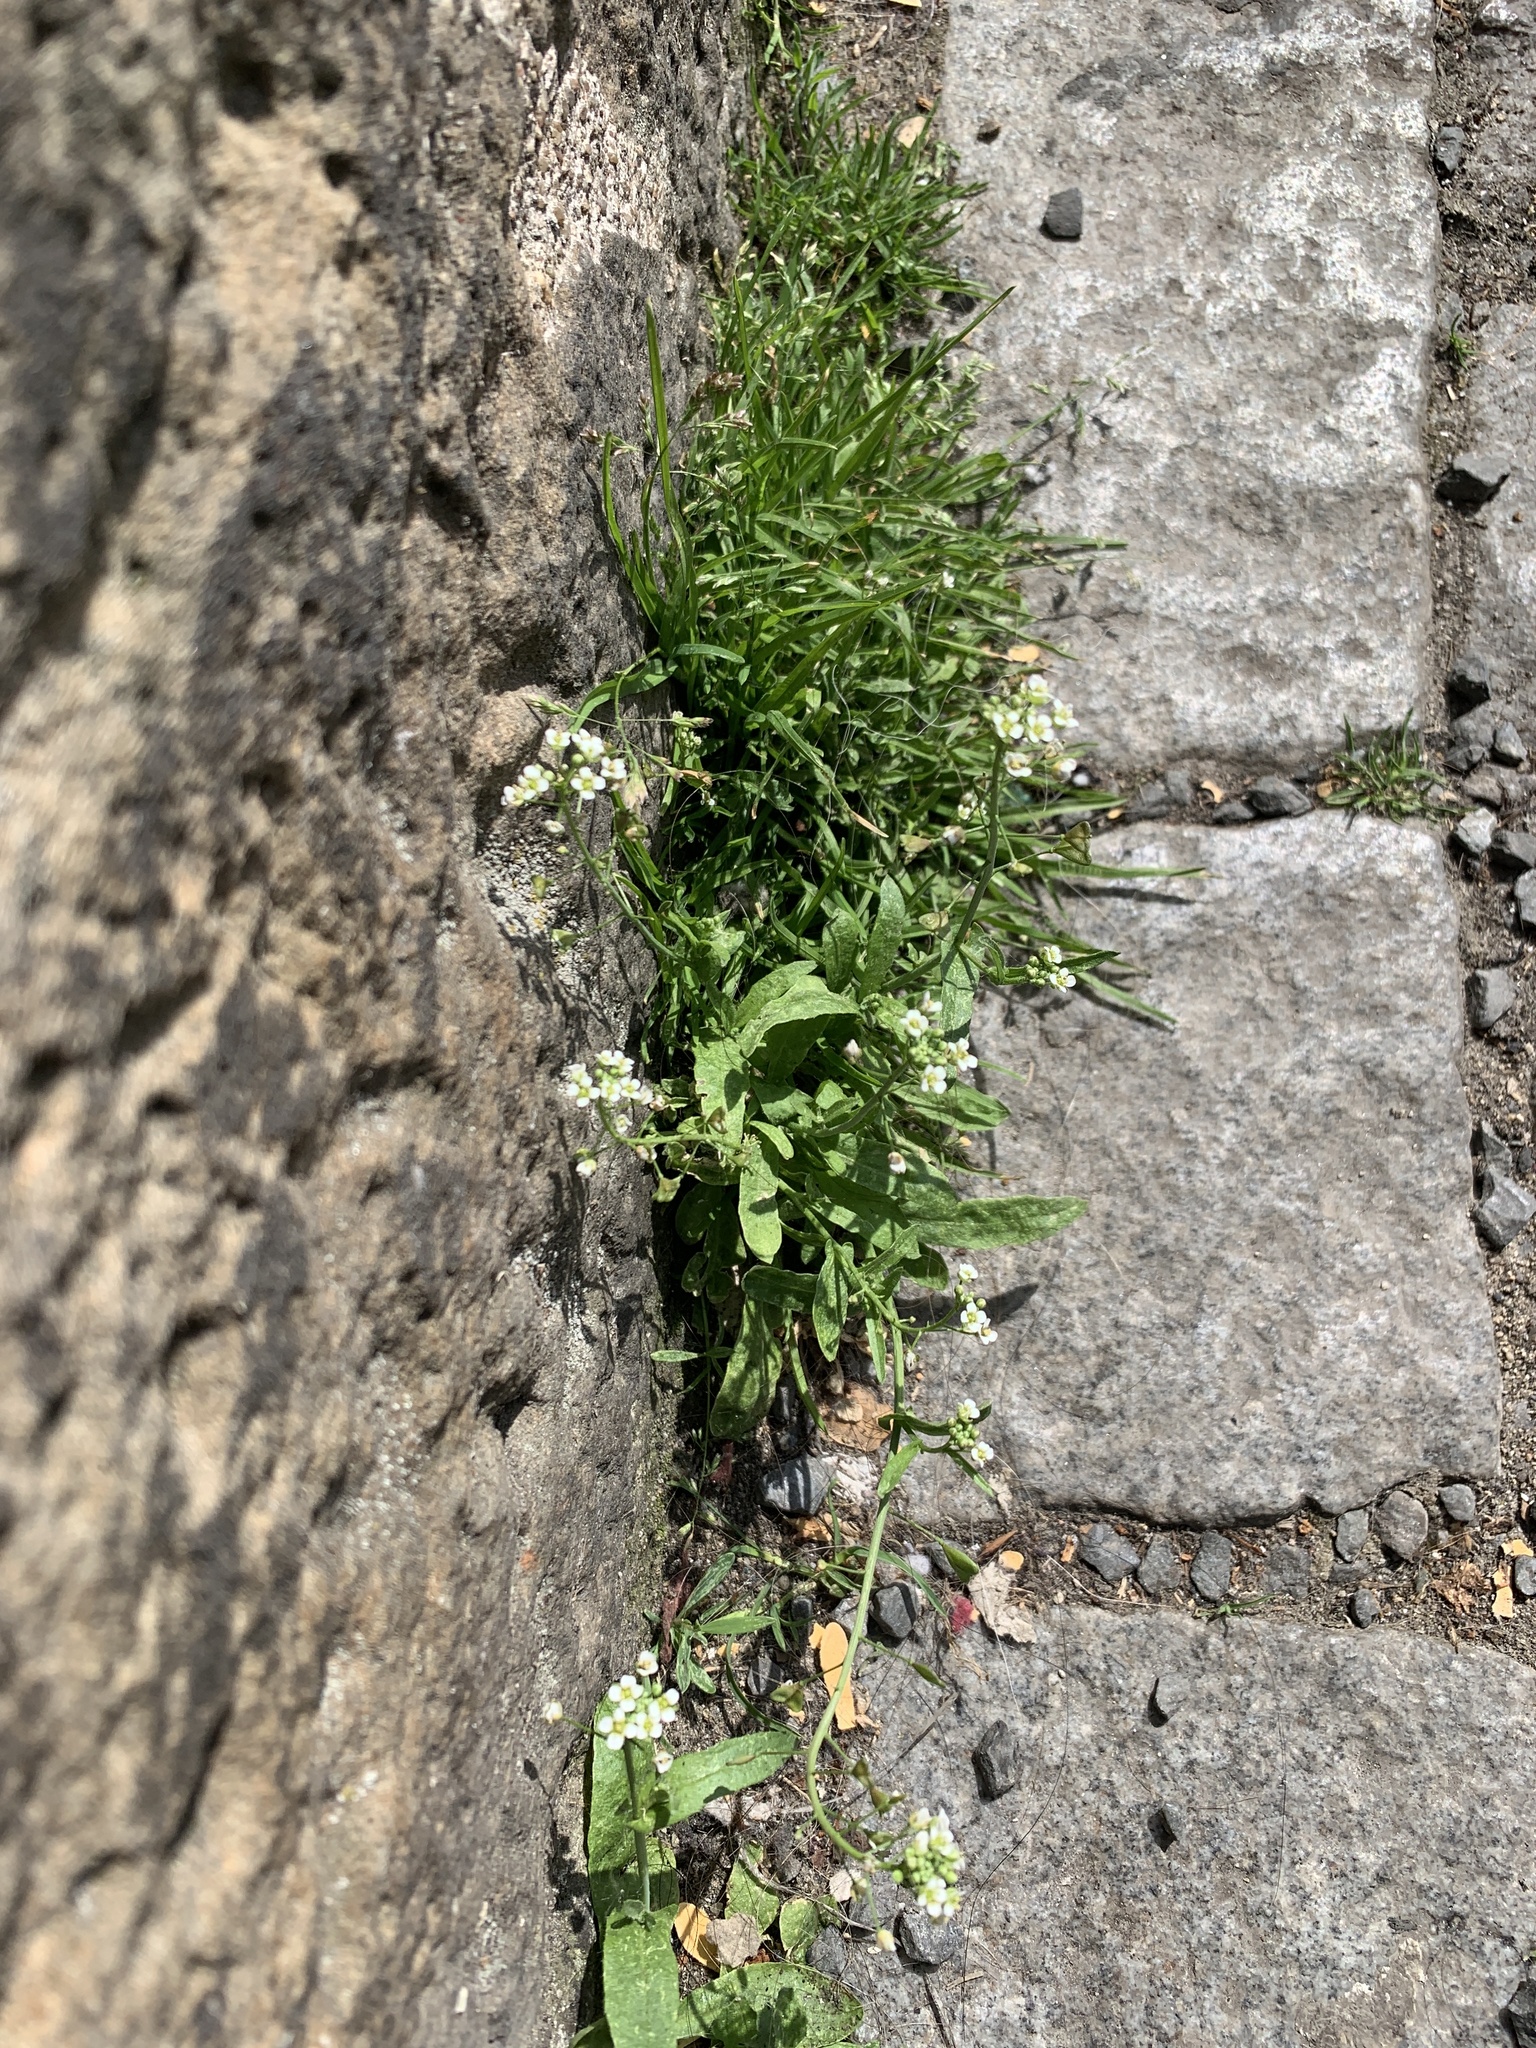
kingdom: Plantae
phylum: Tracheophyta
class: Magnoliopsida
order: Brassicales
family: Brassicaceae
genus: Capsella
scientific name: Capsella bursa-pastoris
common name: Shepherd's purse
